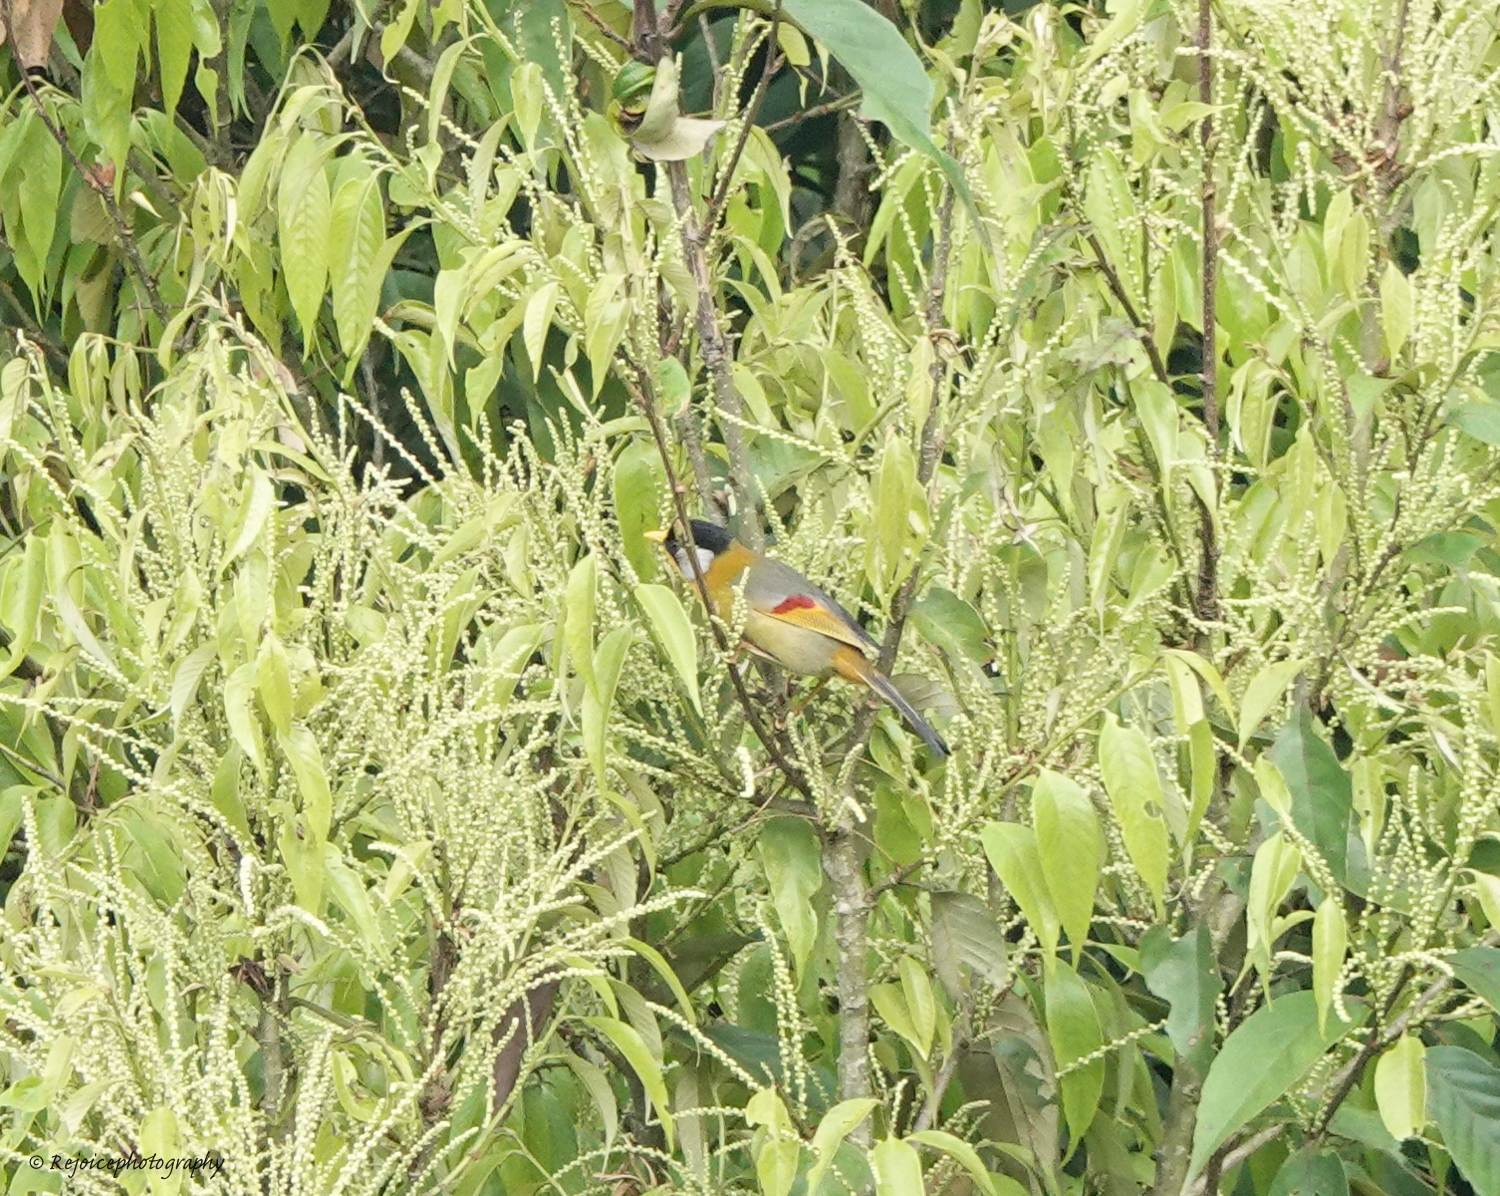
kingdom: Animalia
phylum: Chordata
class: Aves
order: Passeriformes
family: Leiothrichidae
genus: Leiothrix
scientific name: Leiothrix argentauris
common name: Silver-eared mesia
